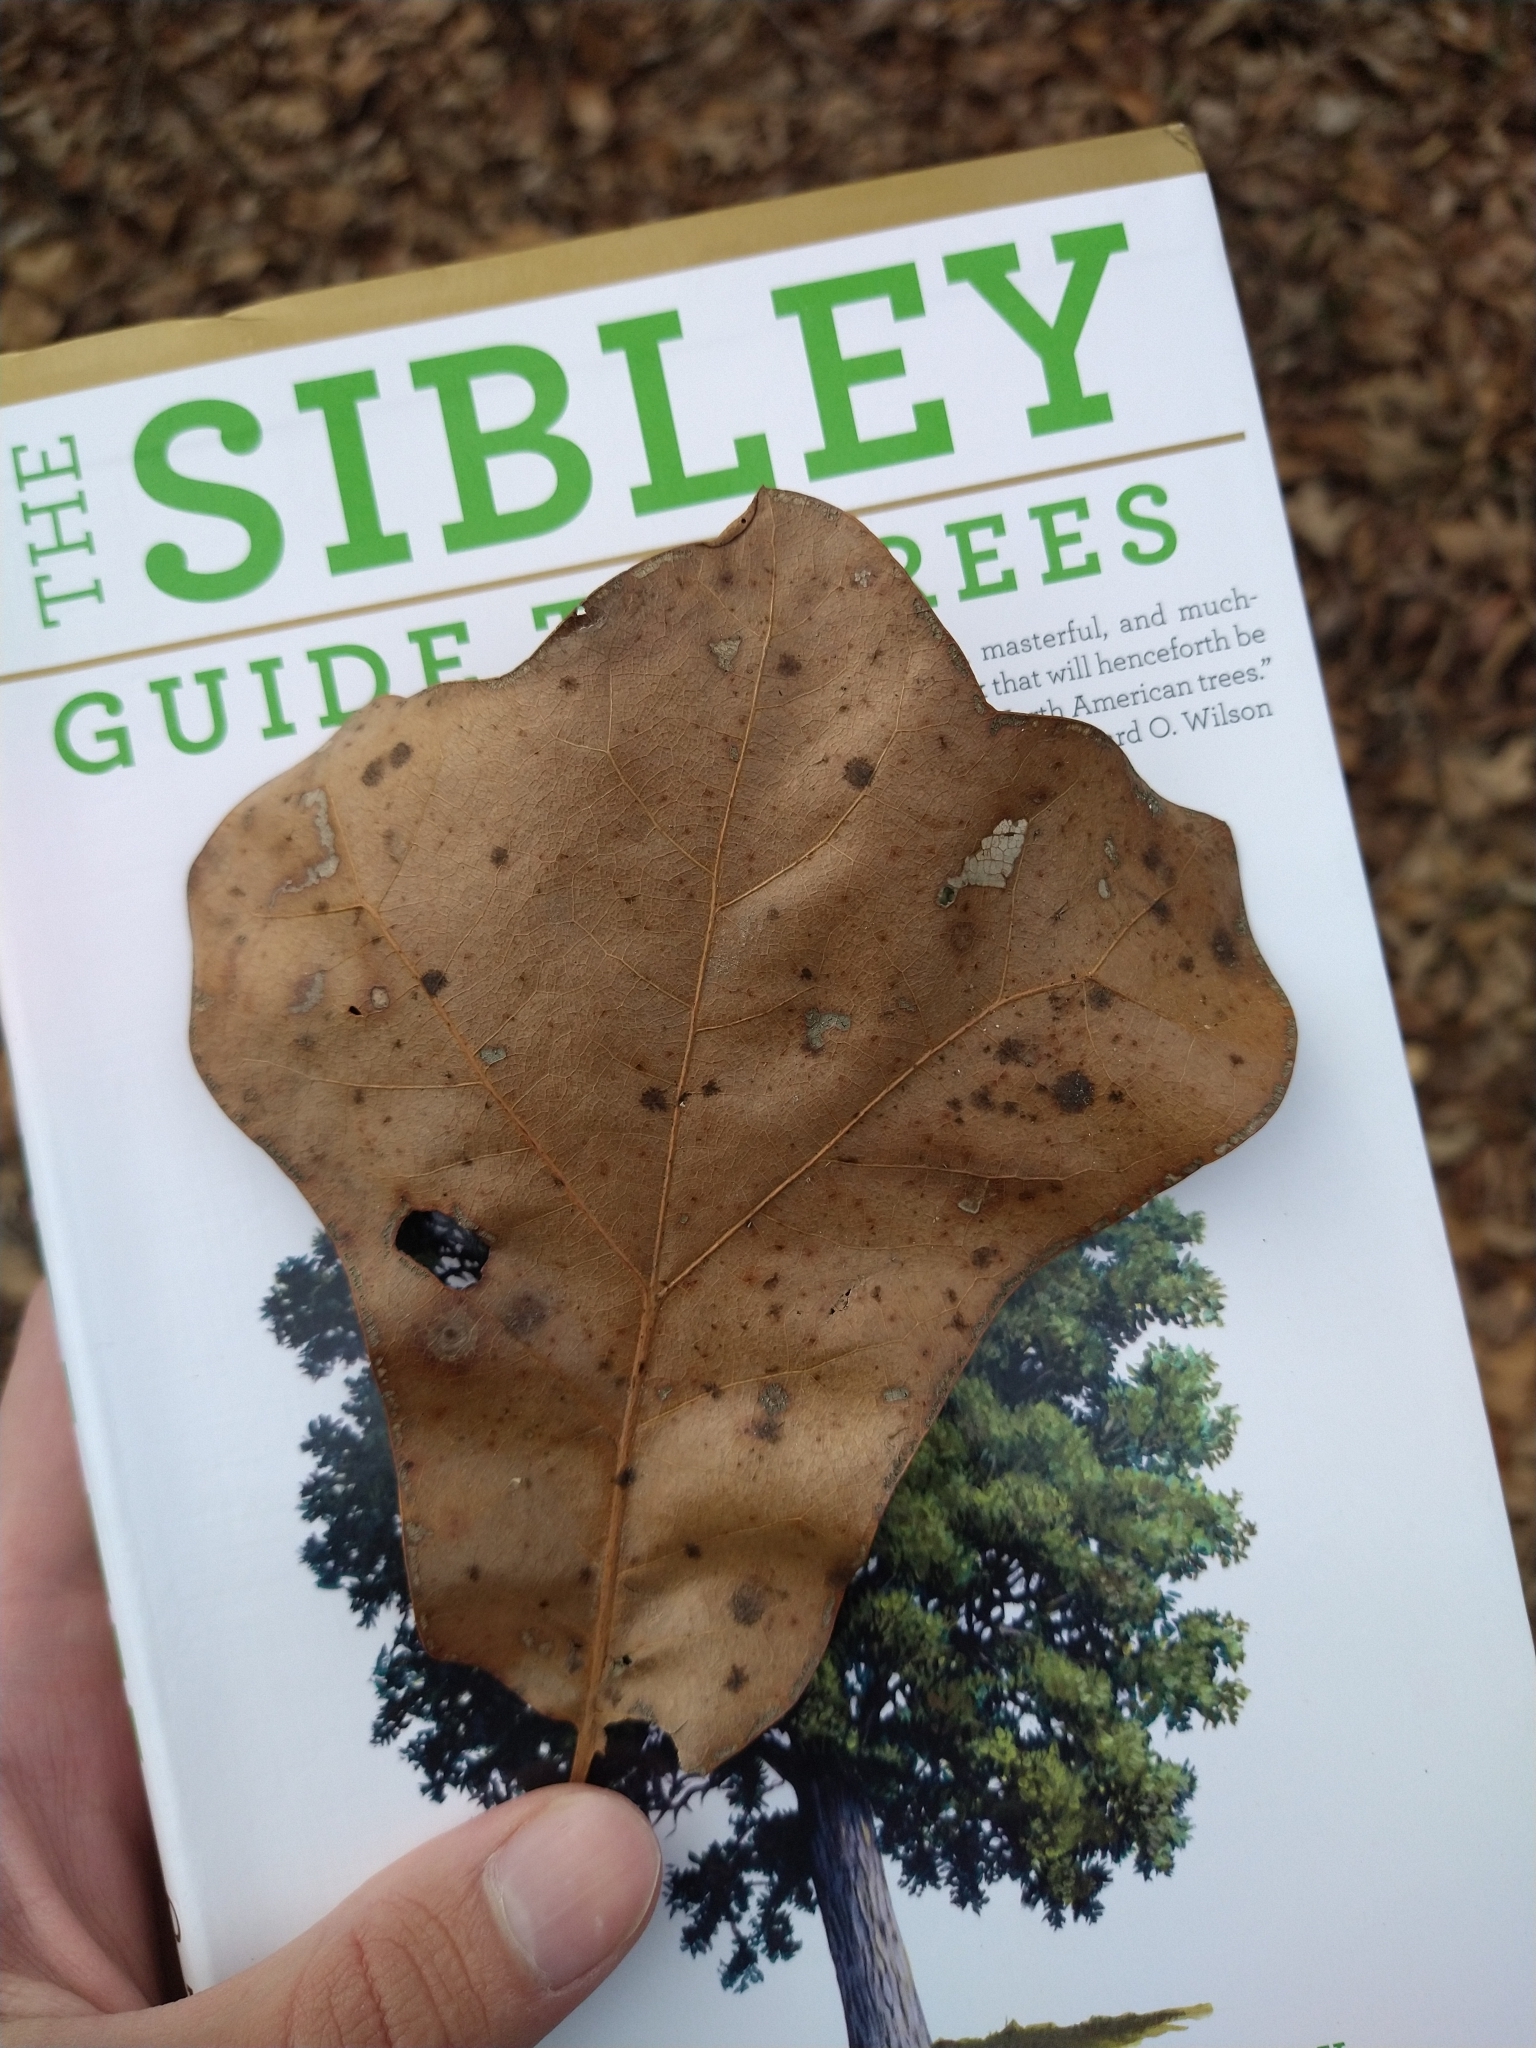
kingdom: Plantae
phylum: Tracheophyta
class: Magnoliopsida
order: Fagales
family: Fagaceae
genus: Quercus
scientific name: Quercus marilandica
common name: Blackjack oak
